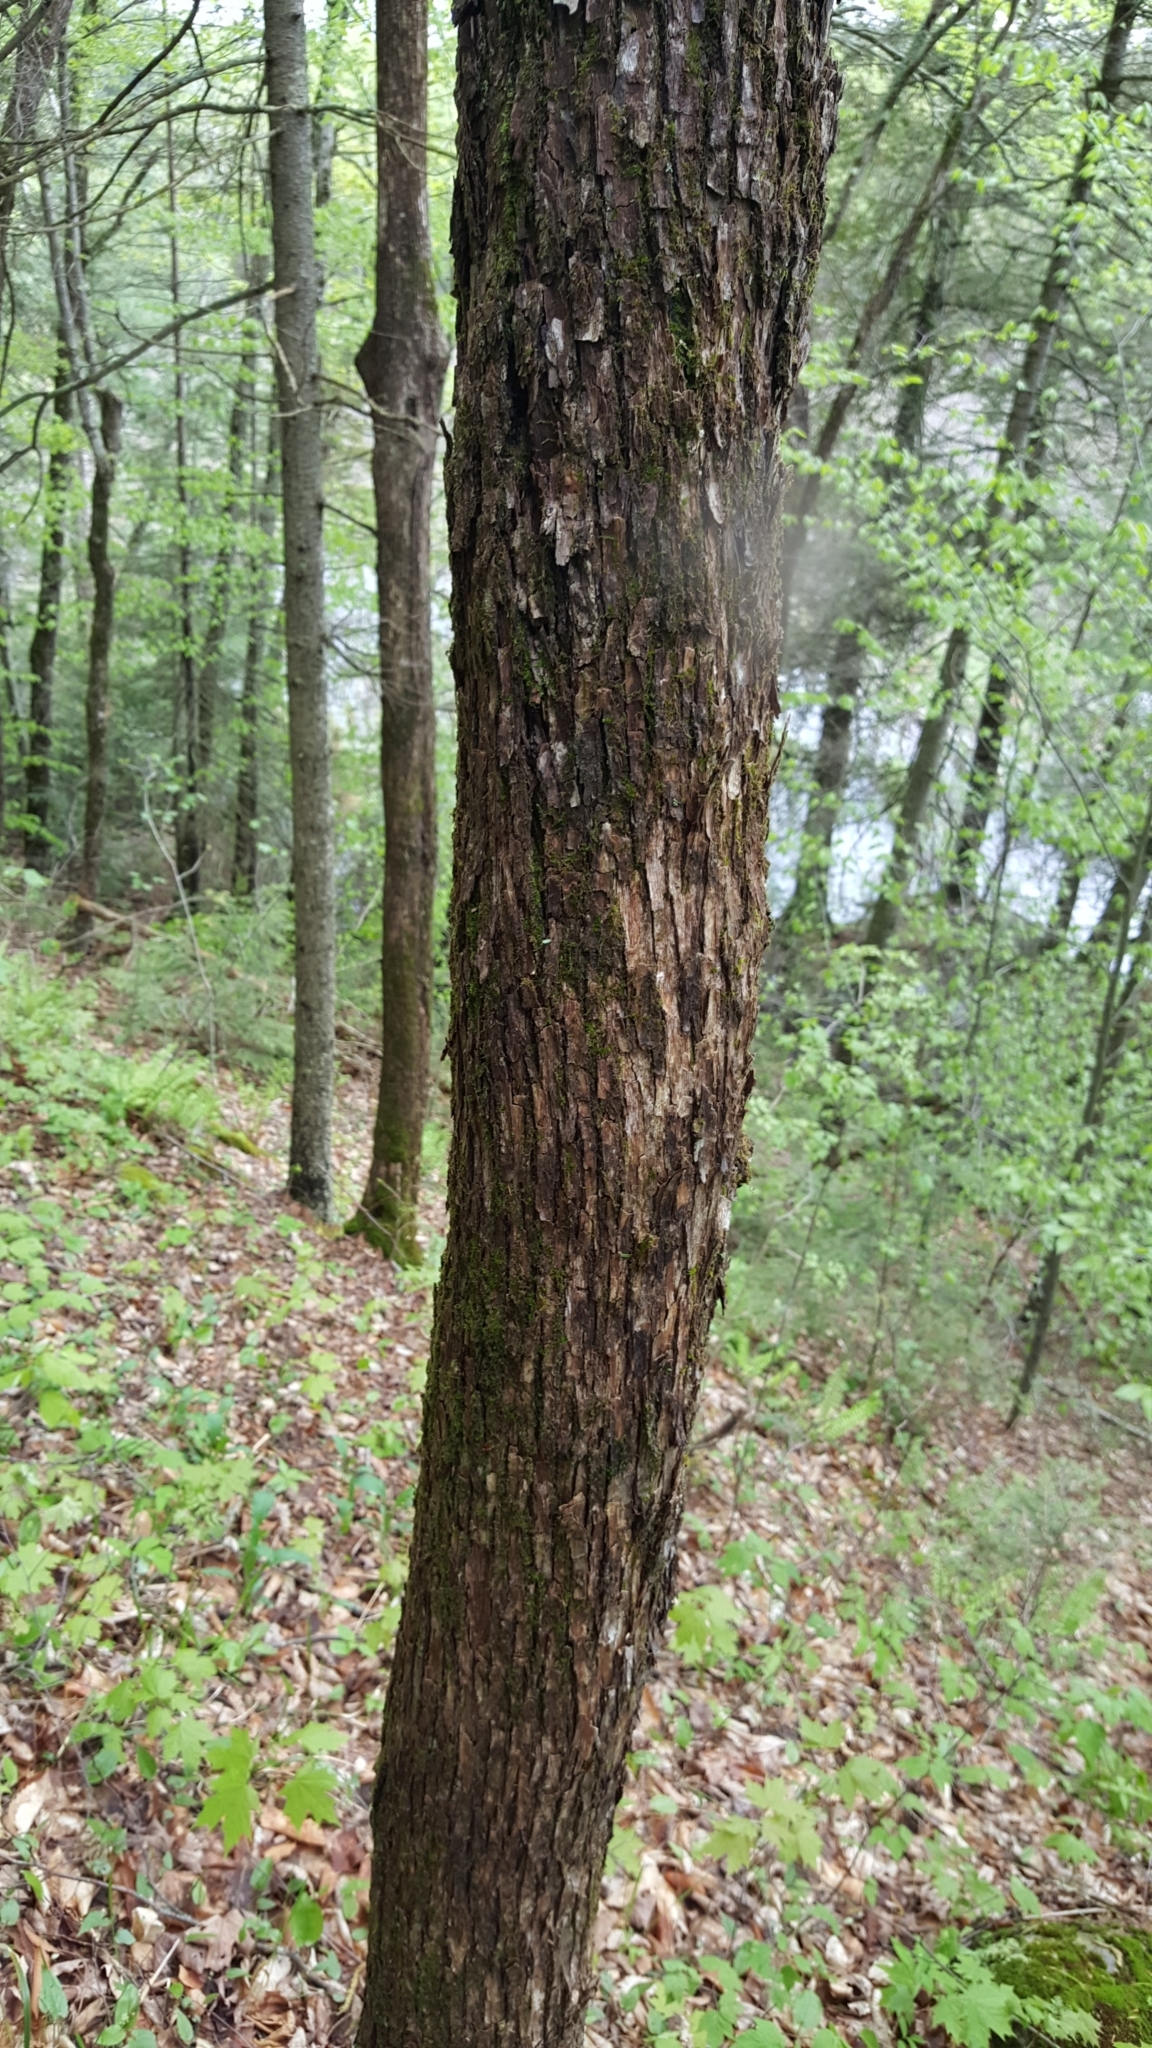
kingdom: Plantae
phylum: Tracheophyta
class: Magnoliopsida
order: Fagales
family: Betulaceae
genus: Ostrya
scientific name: Ostrya virginiana
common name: Ironwood
